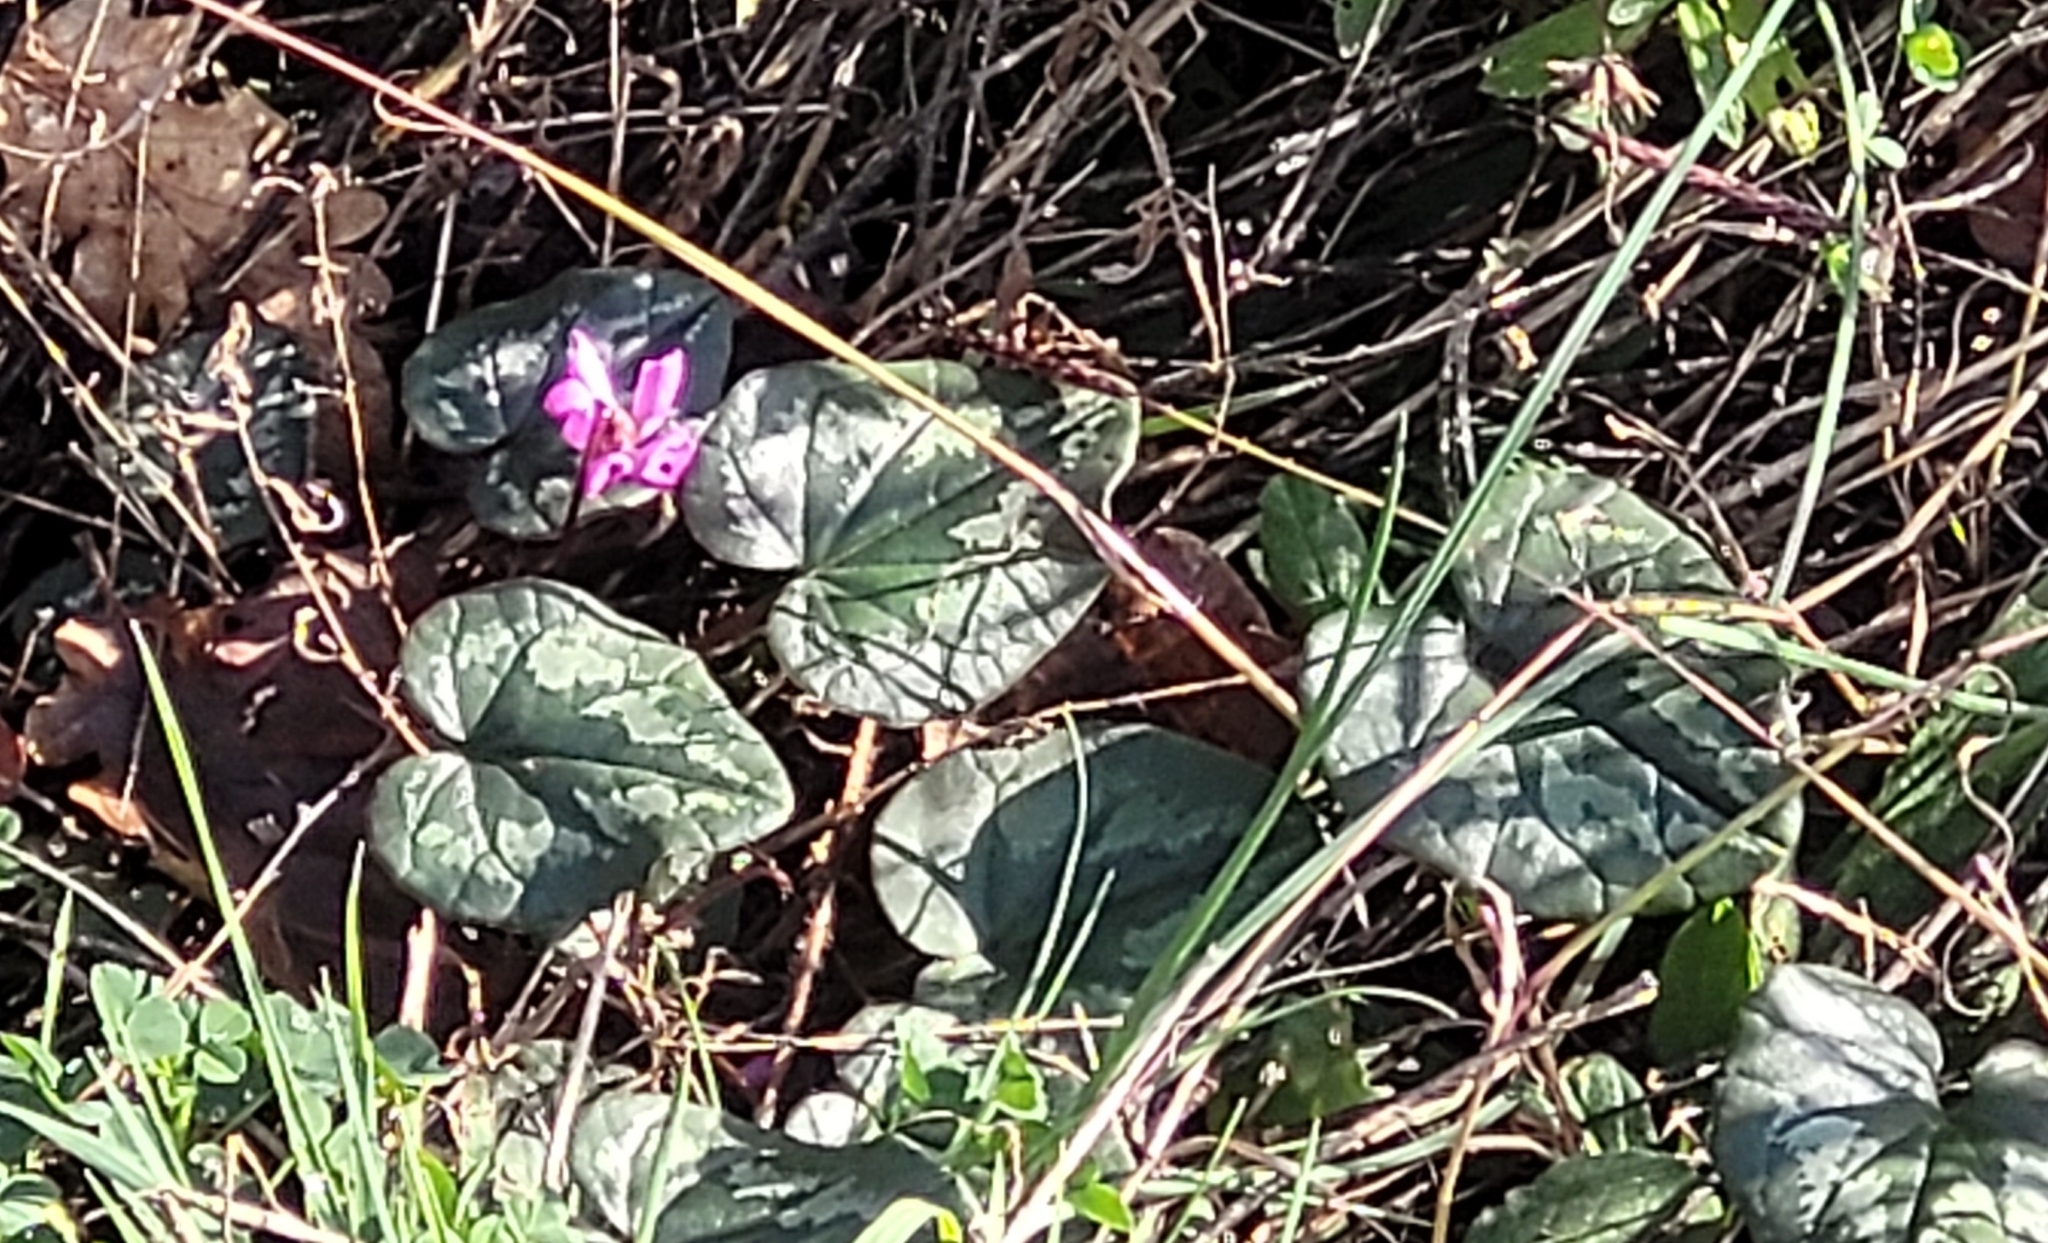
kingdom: Plantae
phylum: Tracheophyta
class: Magnoliopsida
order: Ericales
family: Primulaceae
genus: Cyclamen
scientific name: Cyclamen coum
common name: Eastern sowbread
